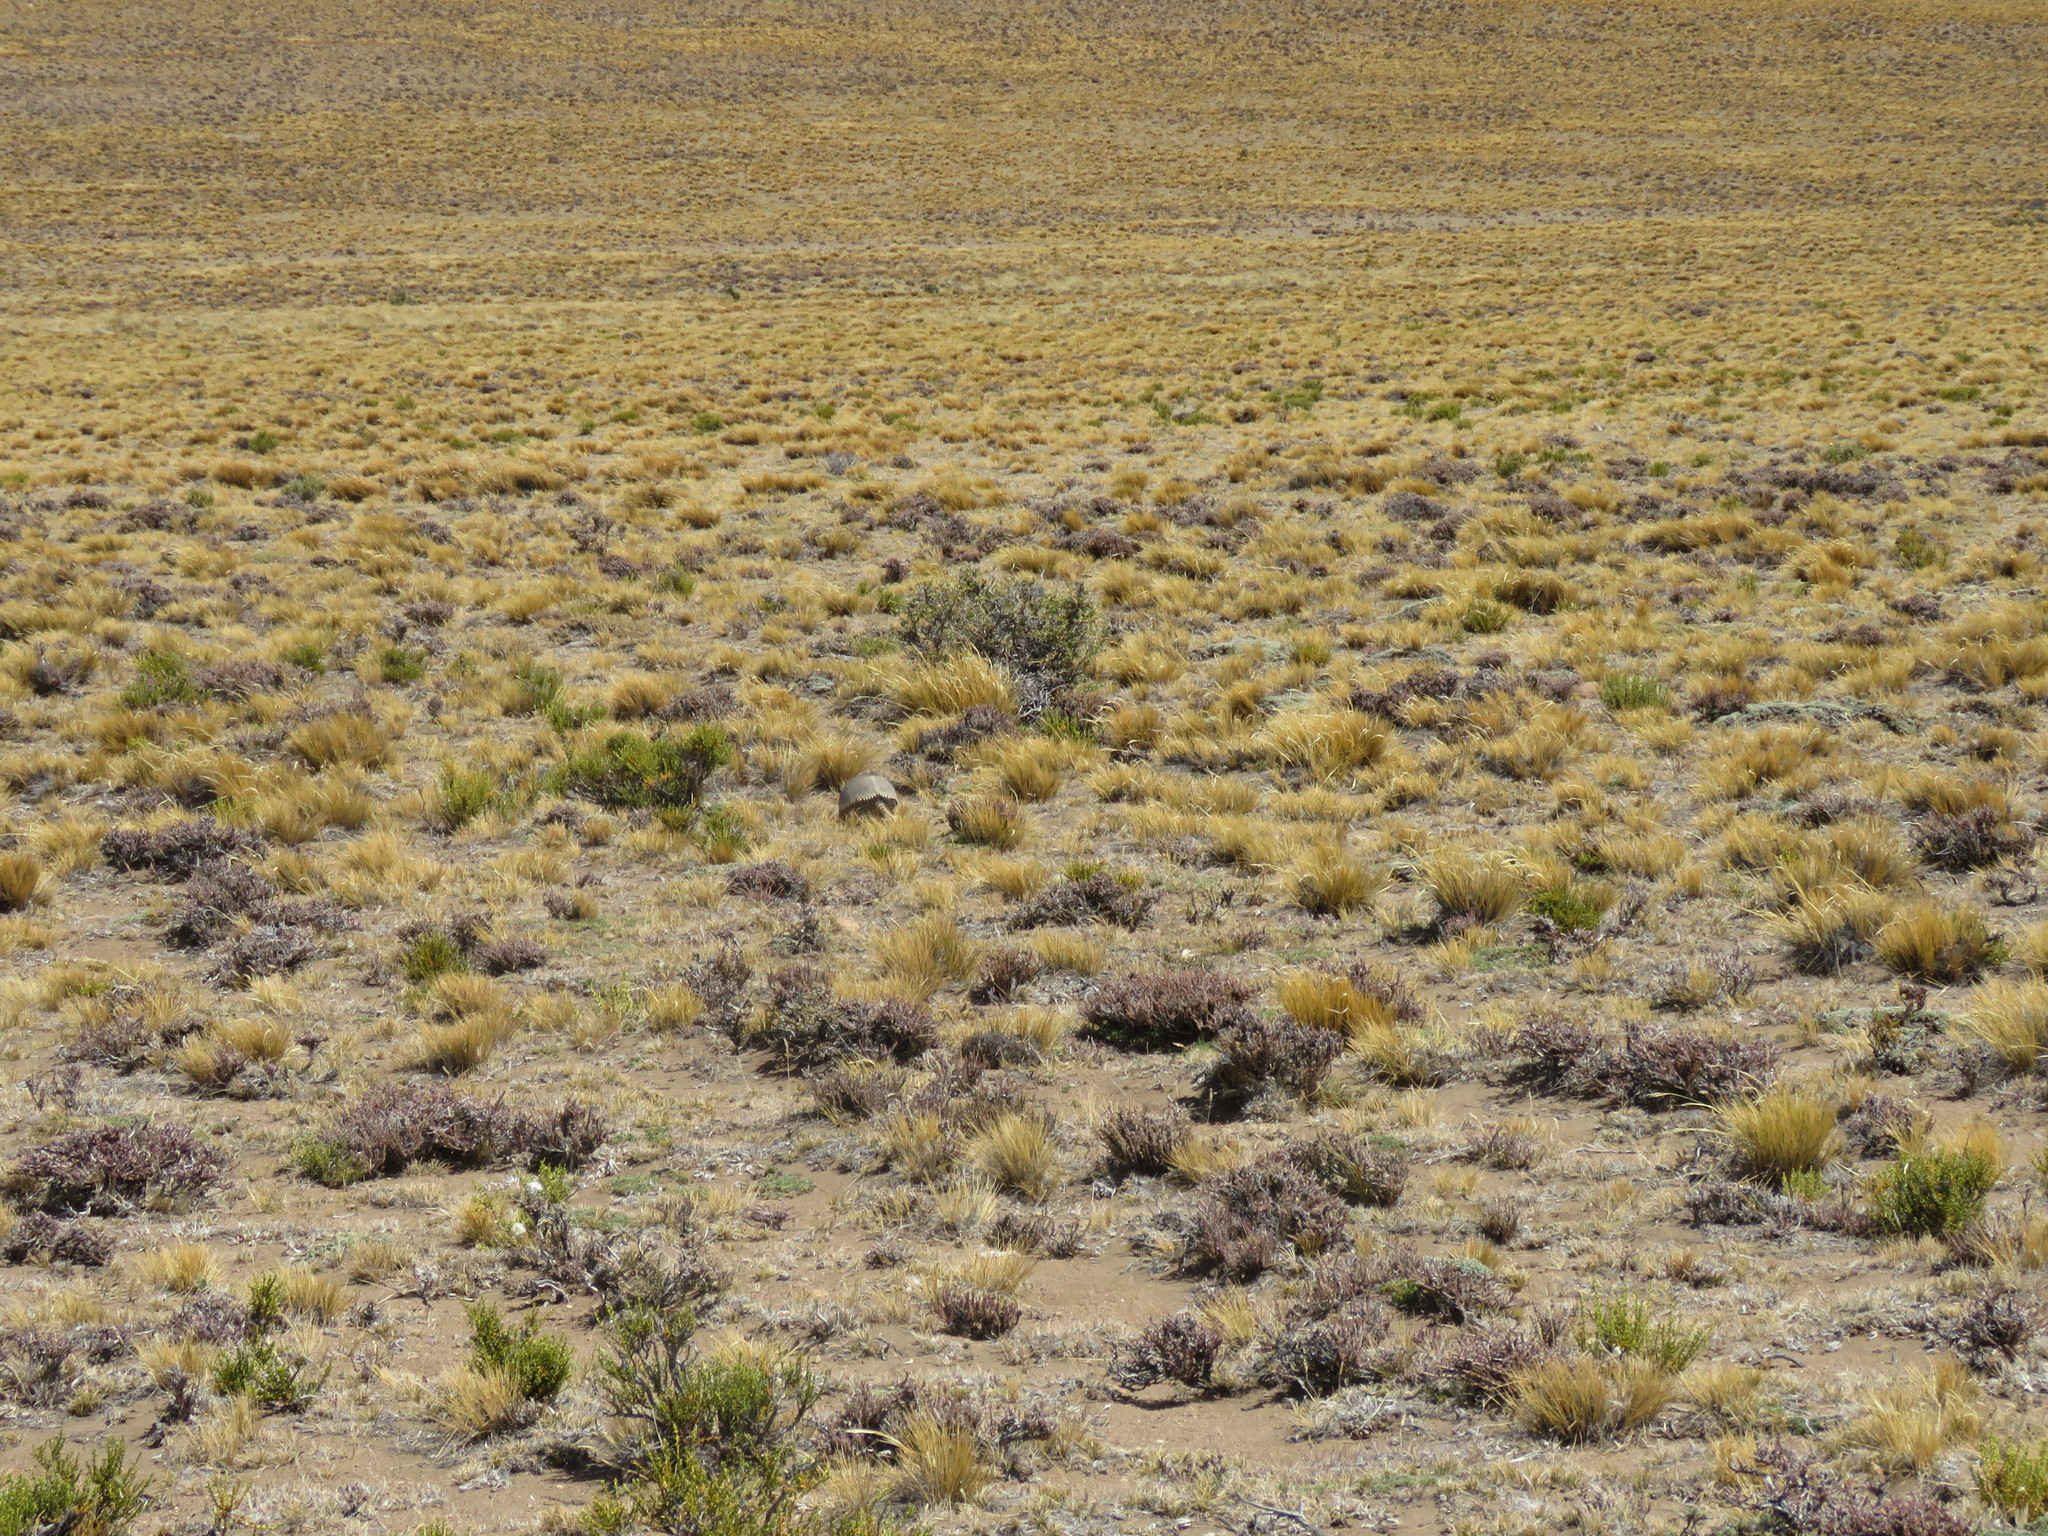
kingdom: Animalia
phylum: Chordata
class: Mammalia
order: Cingulata
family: Dasypodidae
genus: Zaedyus
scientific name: Zaedyus pichiy
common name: Pichi
